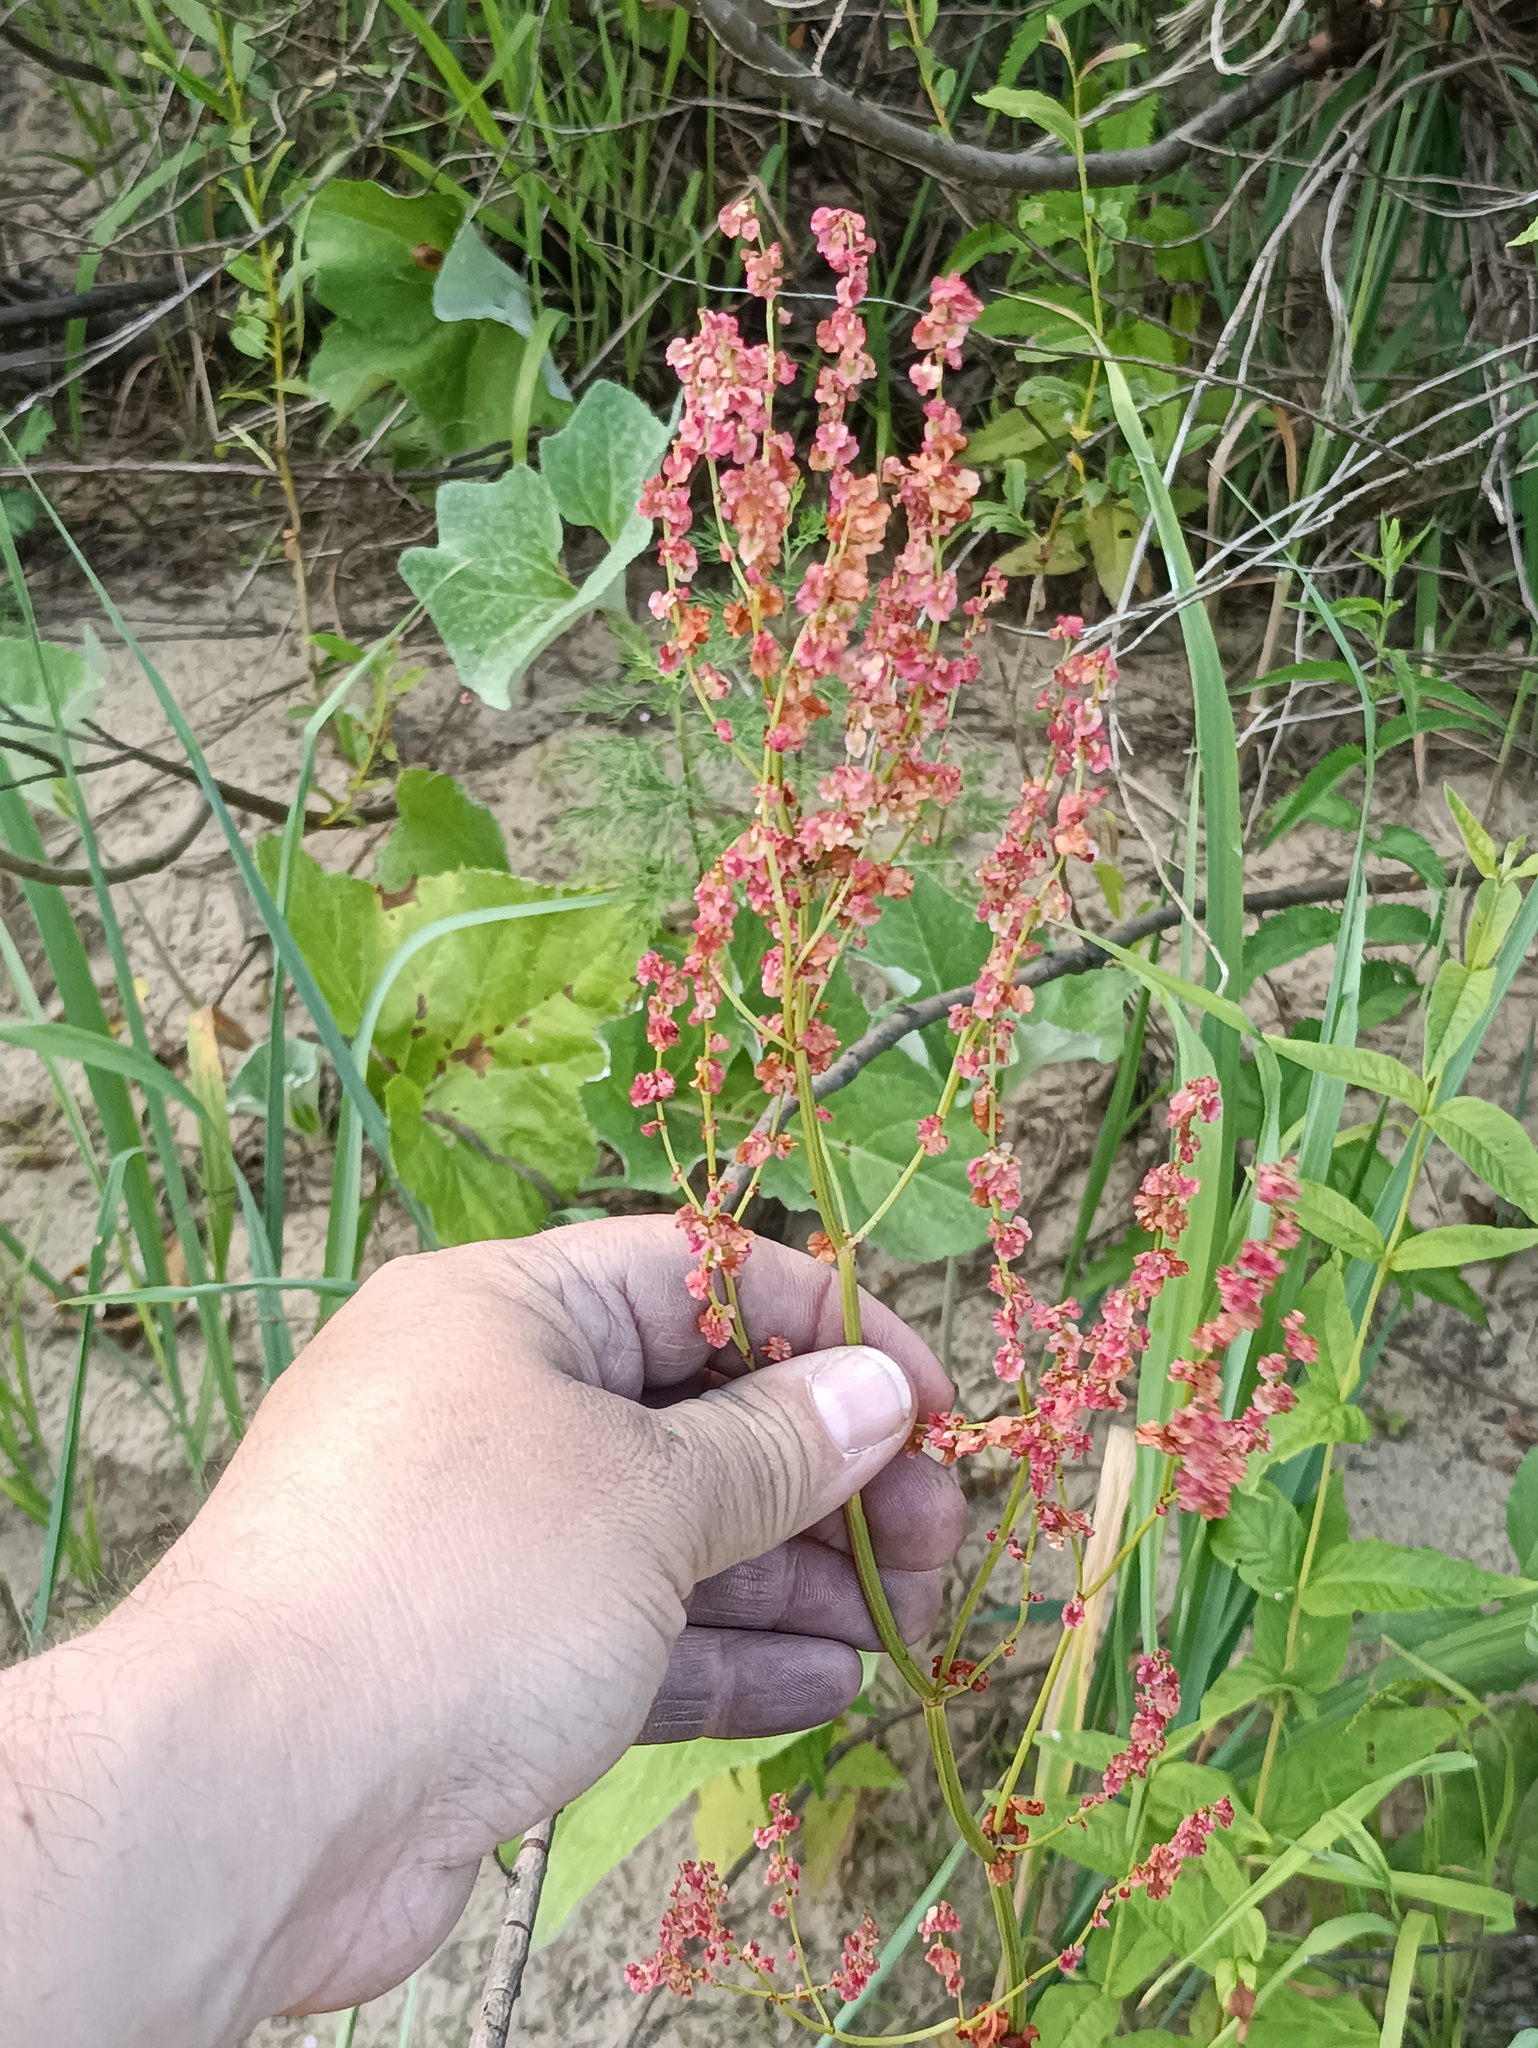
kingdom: Plantae
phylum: Tracheophyta
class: Magnoliopsida
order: Caryophyllales
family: Polygonaceae
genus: Rumex
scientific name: Rumex thyrsiflorus
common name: Garden sorrel
